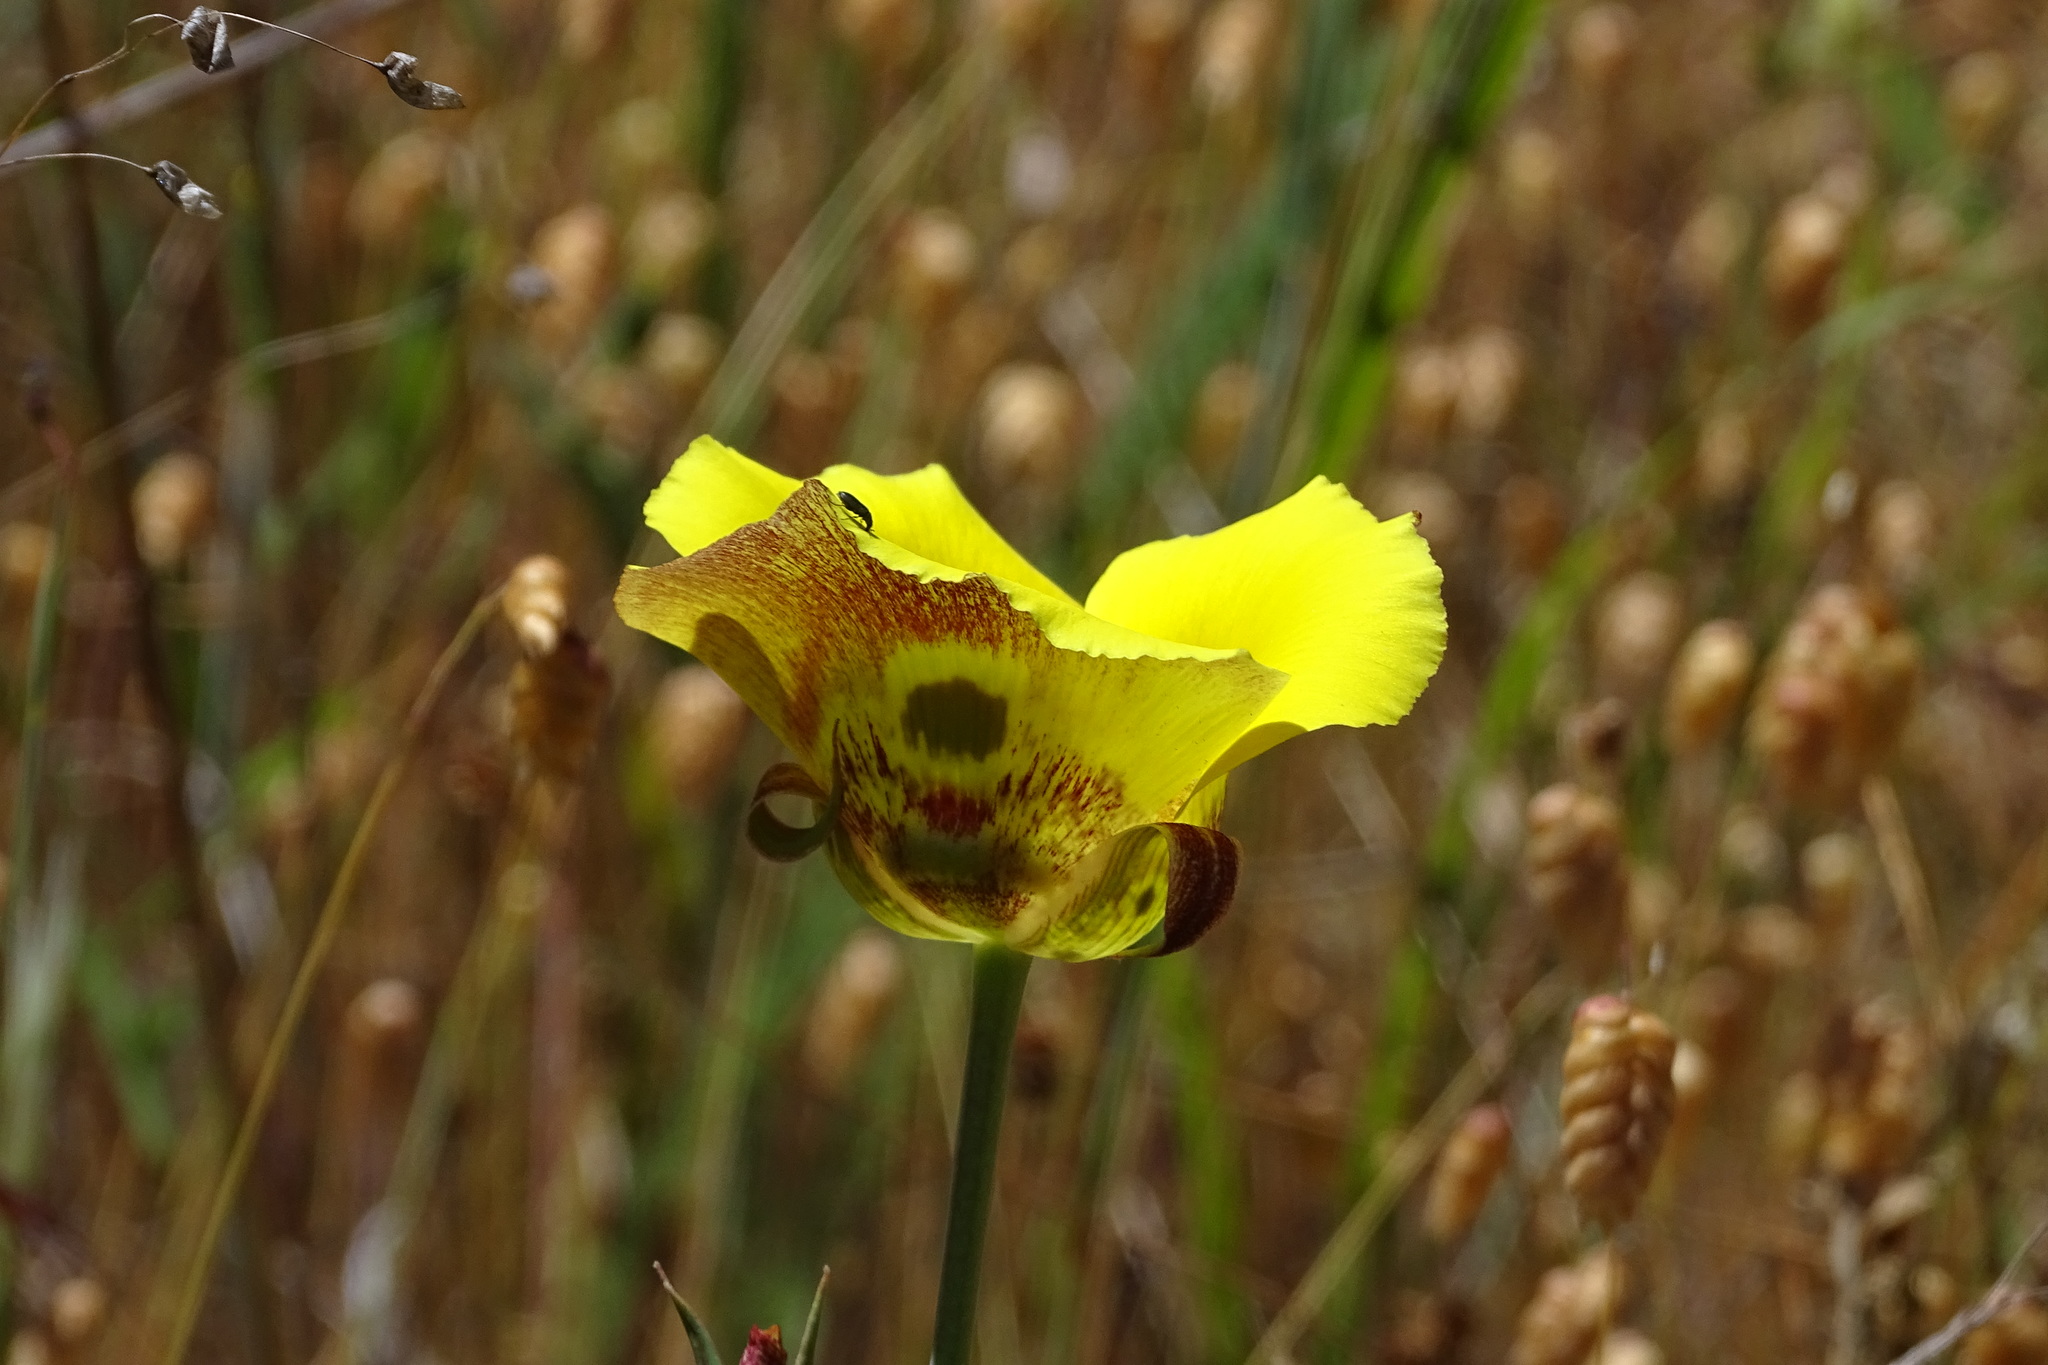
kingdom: Plantae
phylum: Tracheophyta
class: Liliopsida
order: Liliales
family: Liliaceae
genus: Calochortus
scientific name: Calochortus luteus
